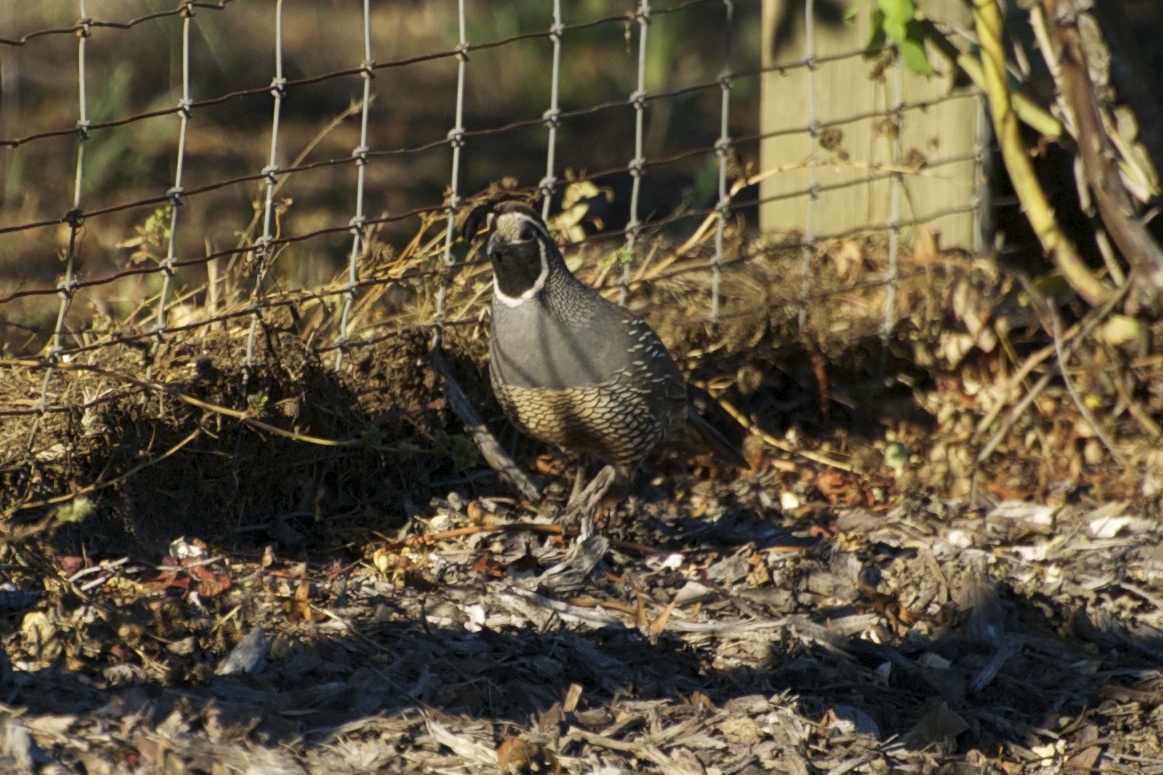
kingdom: Animalia
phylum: Chordata
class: Aves
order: Galliformes
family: Odontophoridae
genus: Callipepla
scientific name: Callipepla californica
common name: California quail
